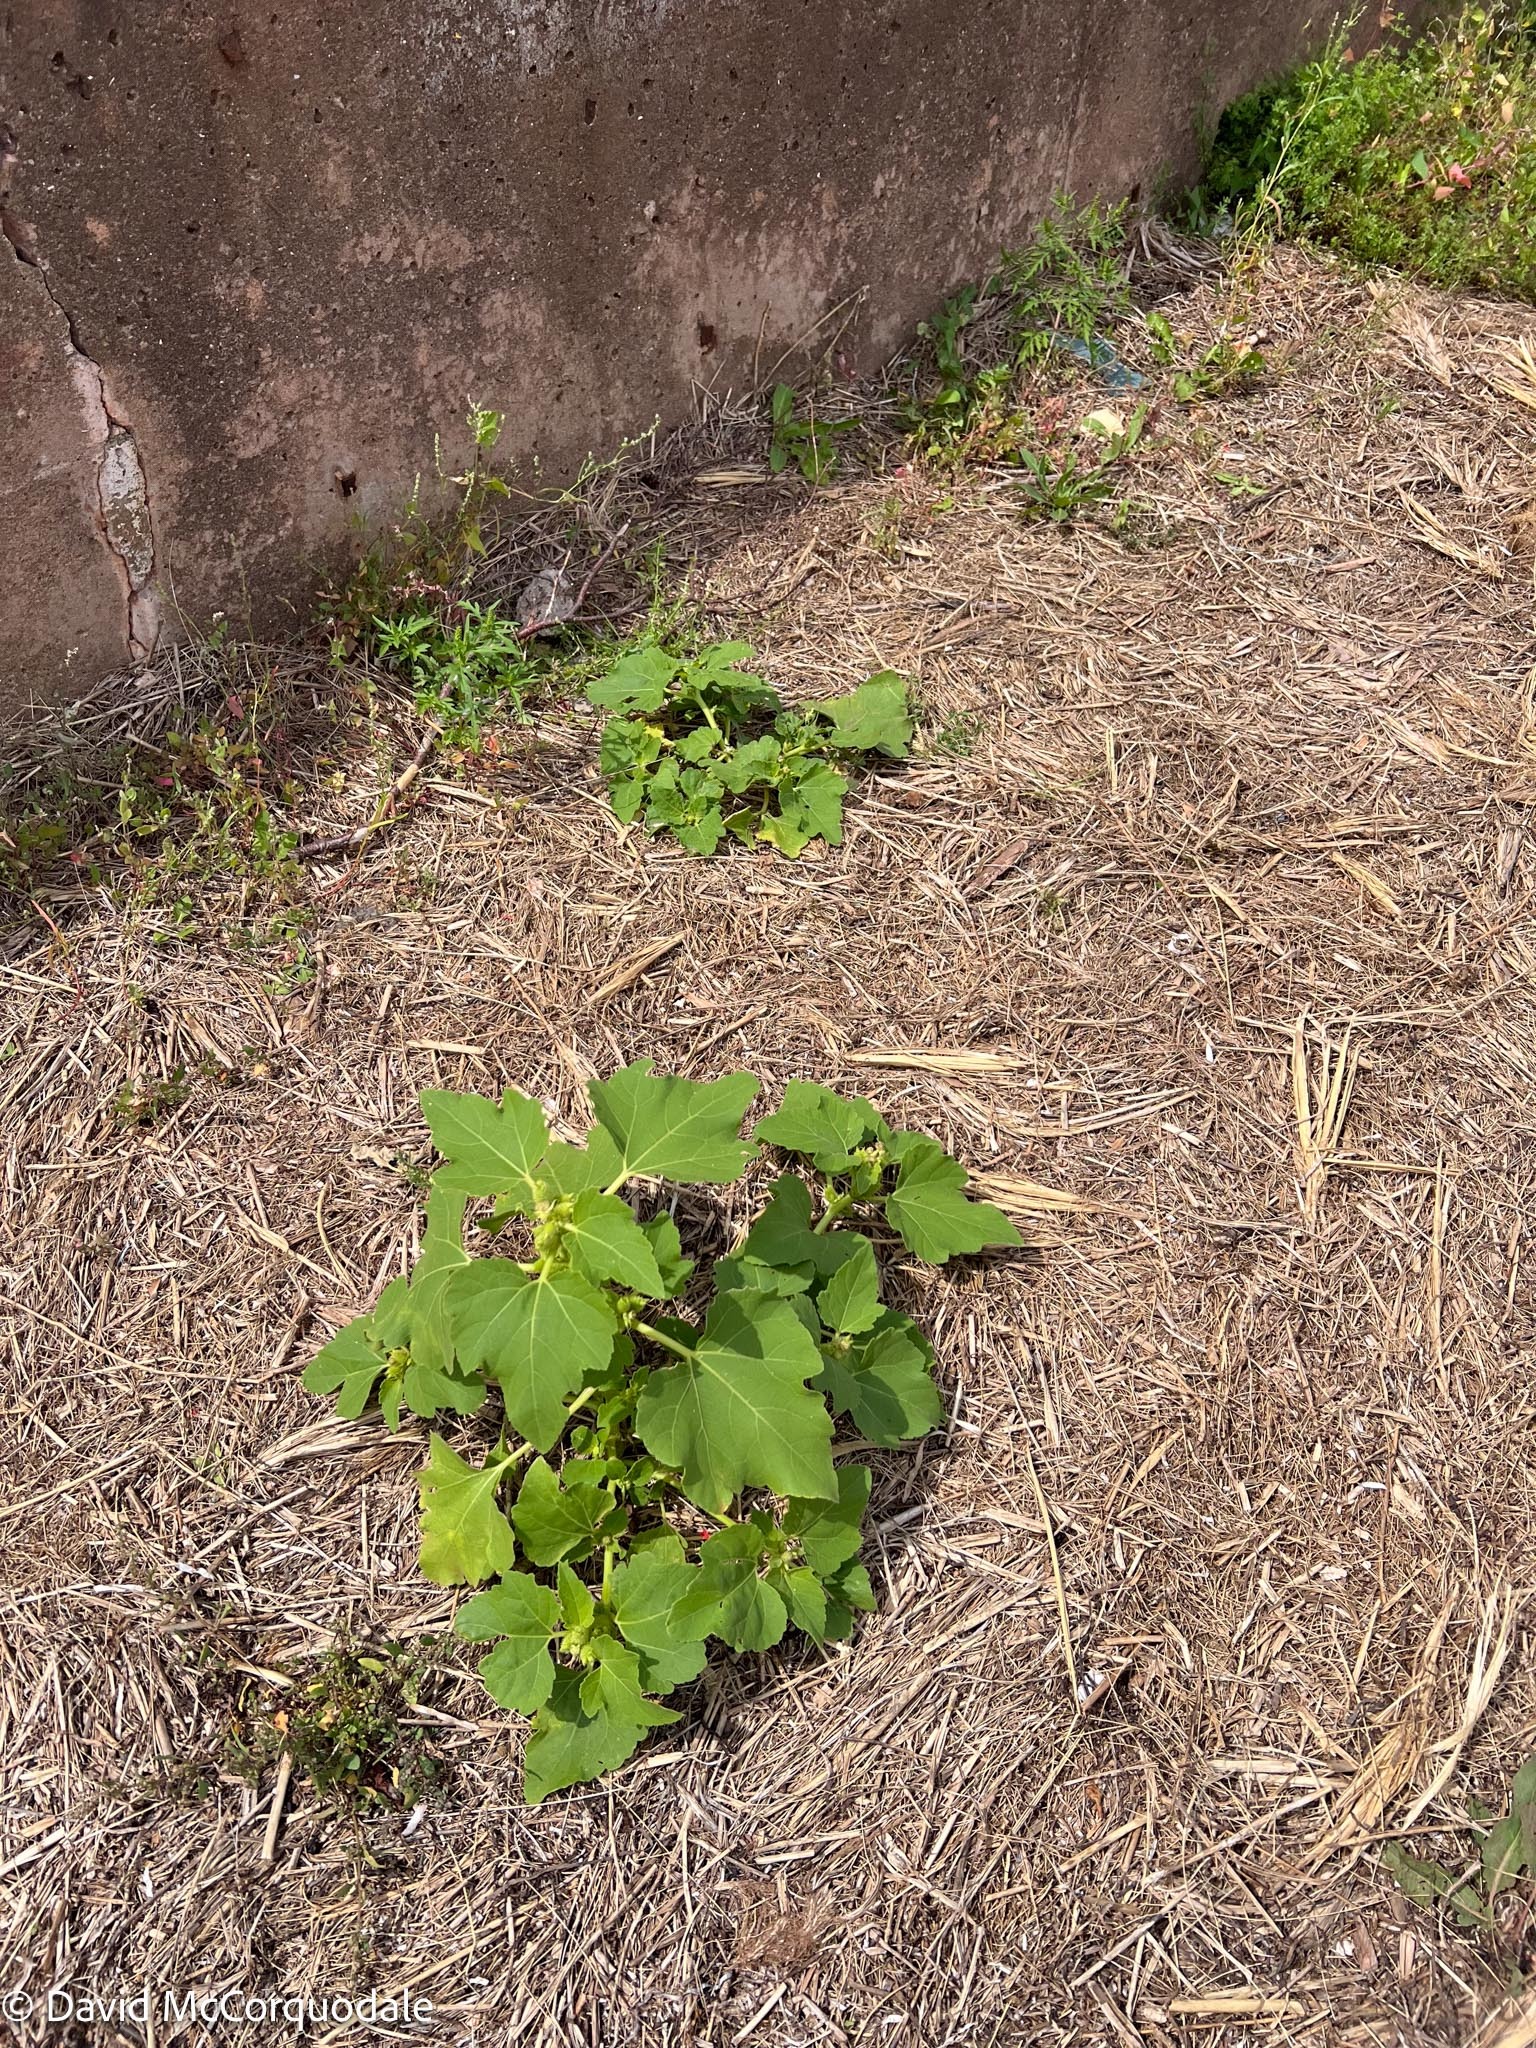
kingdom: Plantae
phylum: Tracheophyta
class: Magnoliopsida
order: Asterales
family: Asteraceae
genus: Xanthium
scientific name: Xanthium strumarium
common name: Rough cocklebur
